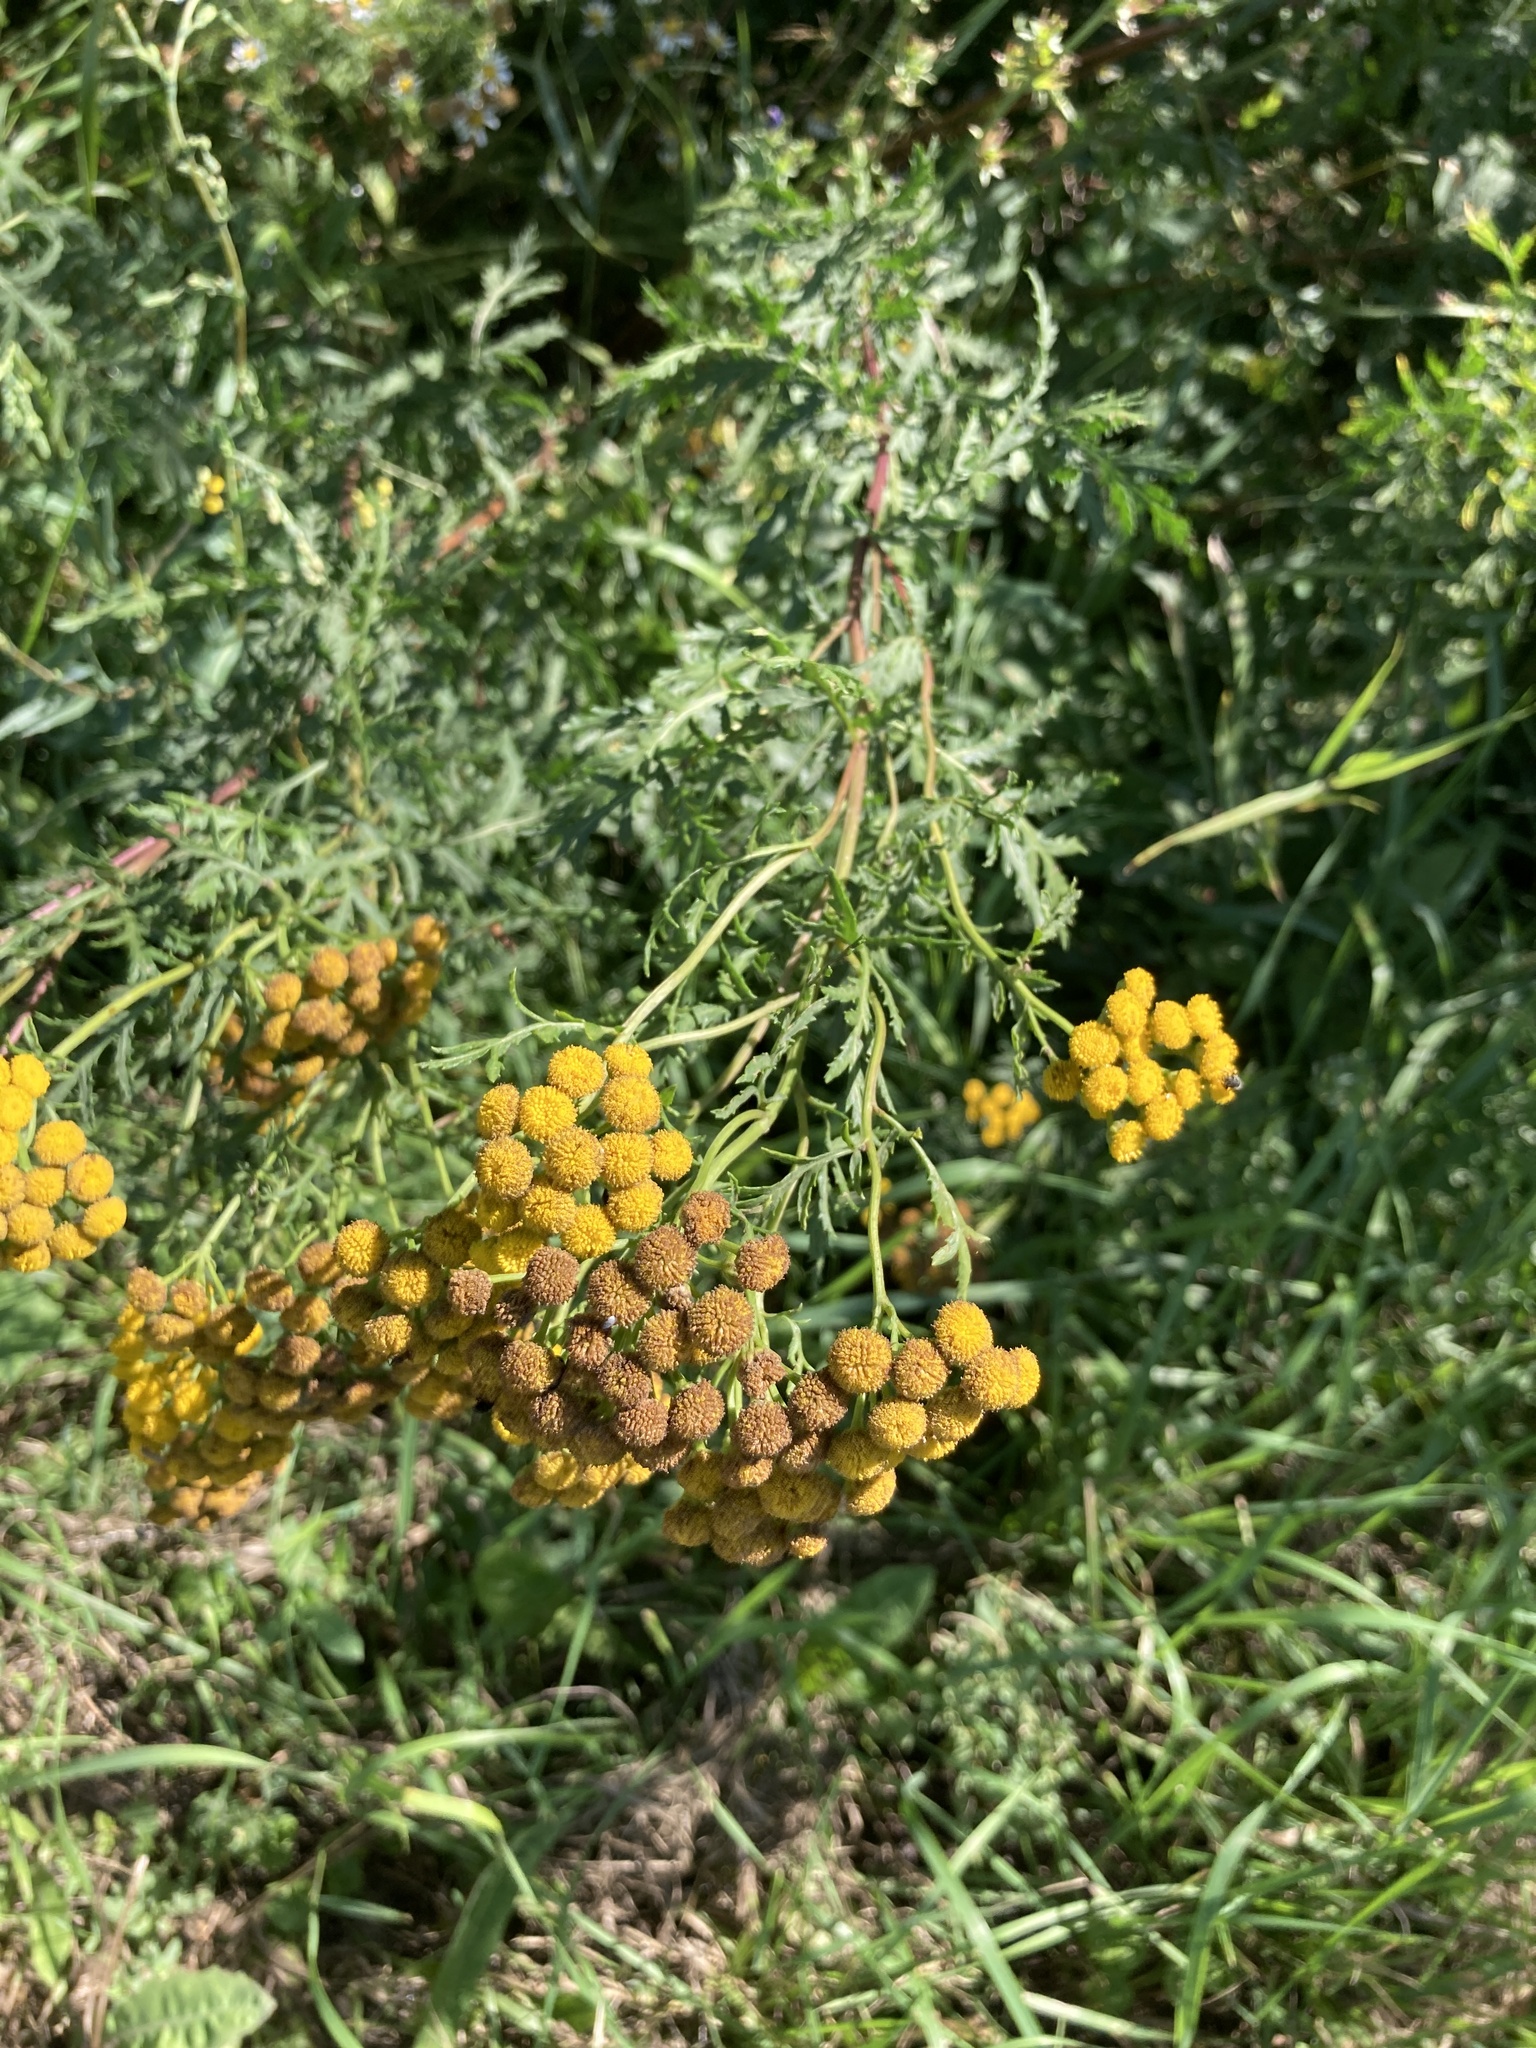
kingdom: Plantae
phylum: Tracheophyta
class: Magnoliopsida
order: Asterales
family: Asteraceae
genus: Tanacetum
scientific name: Tanacetum vulgare
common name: Common tansy
